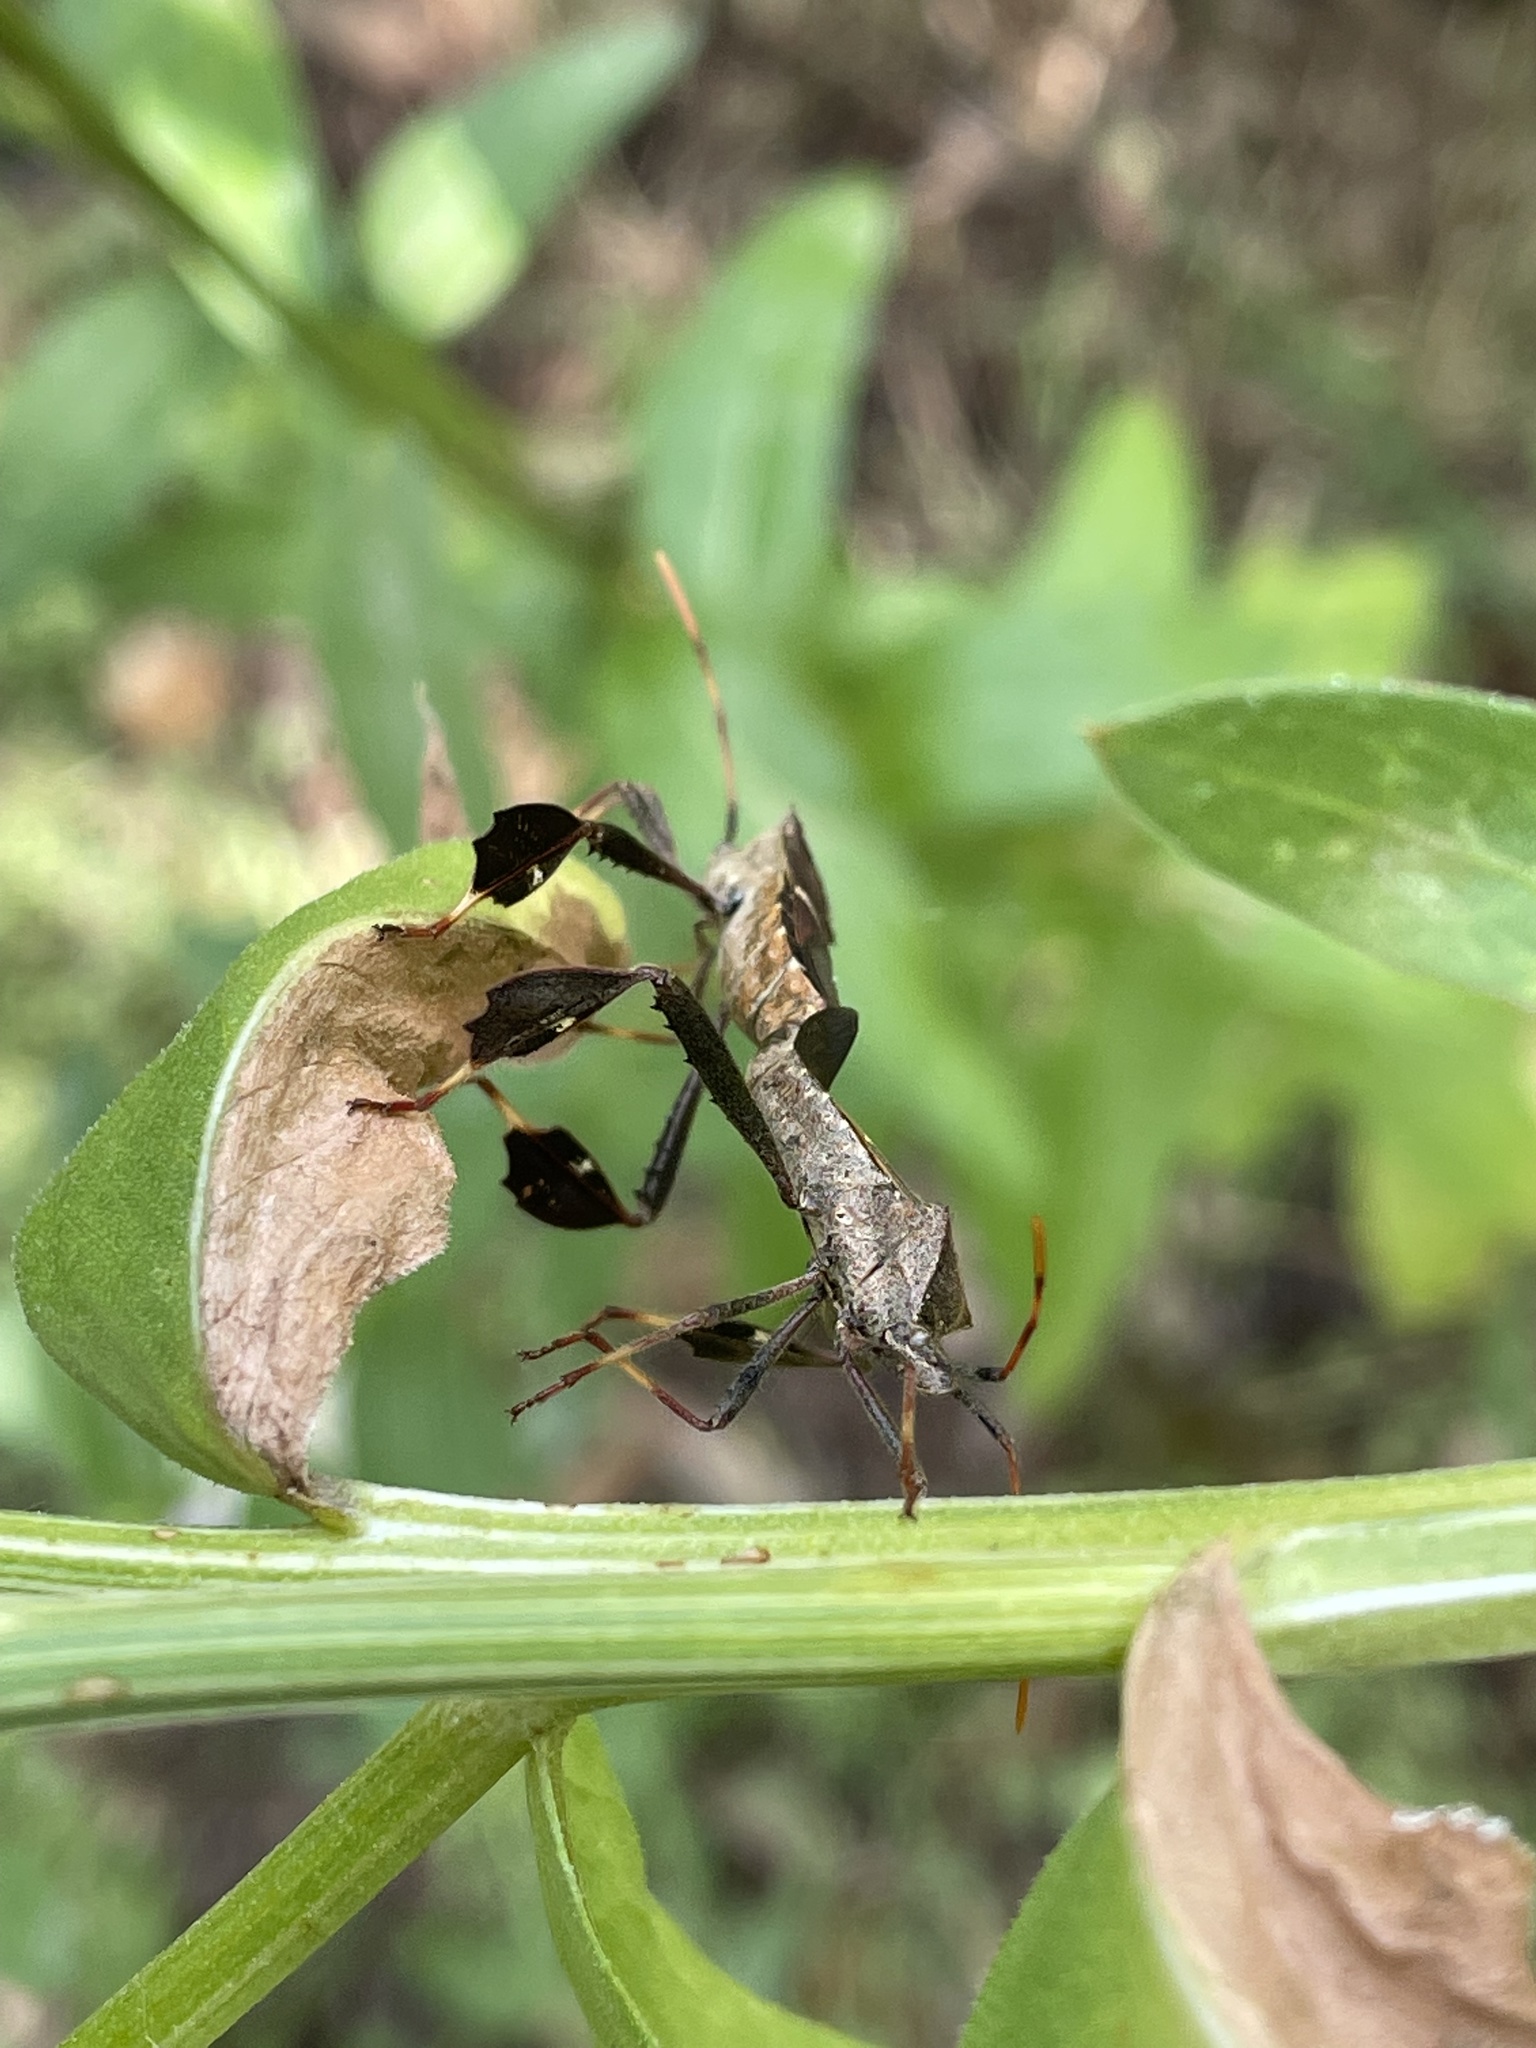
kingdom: Animalia
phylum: Arthropoda
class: Insecta
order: Hemiptera
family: Coreidae
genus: Leptoglossus
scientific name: Leptoglossus phyllopus
